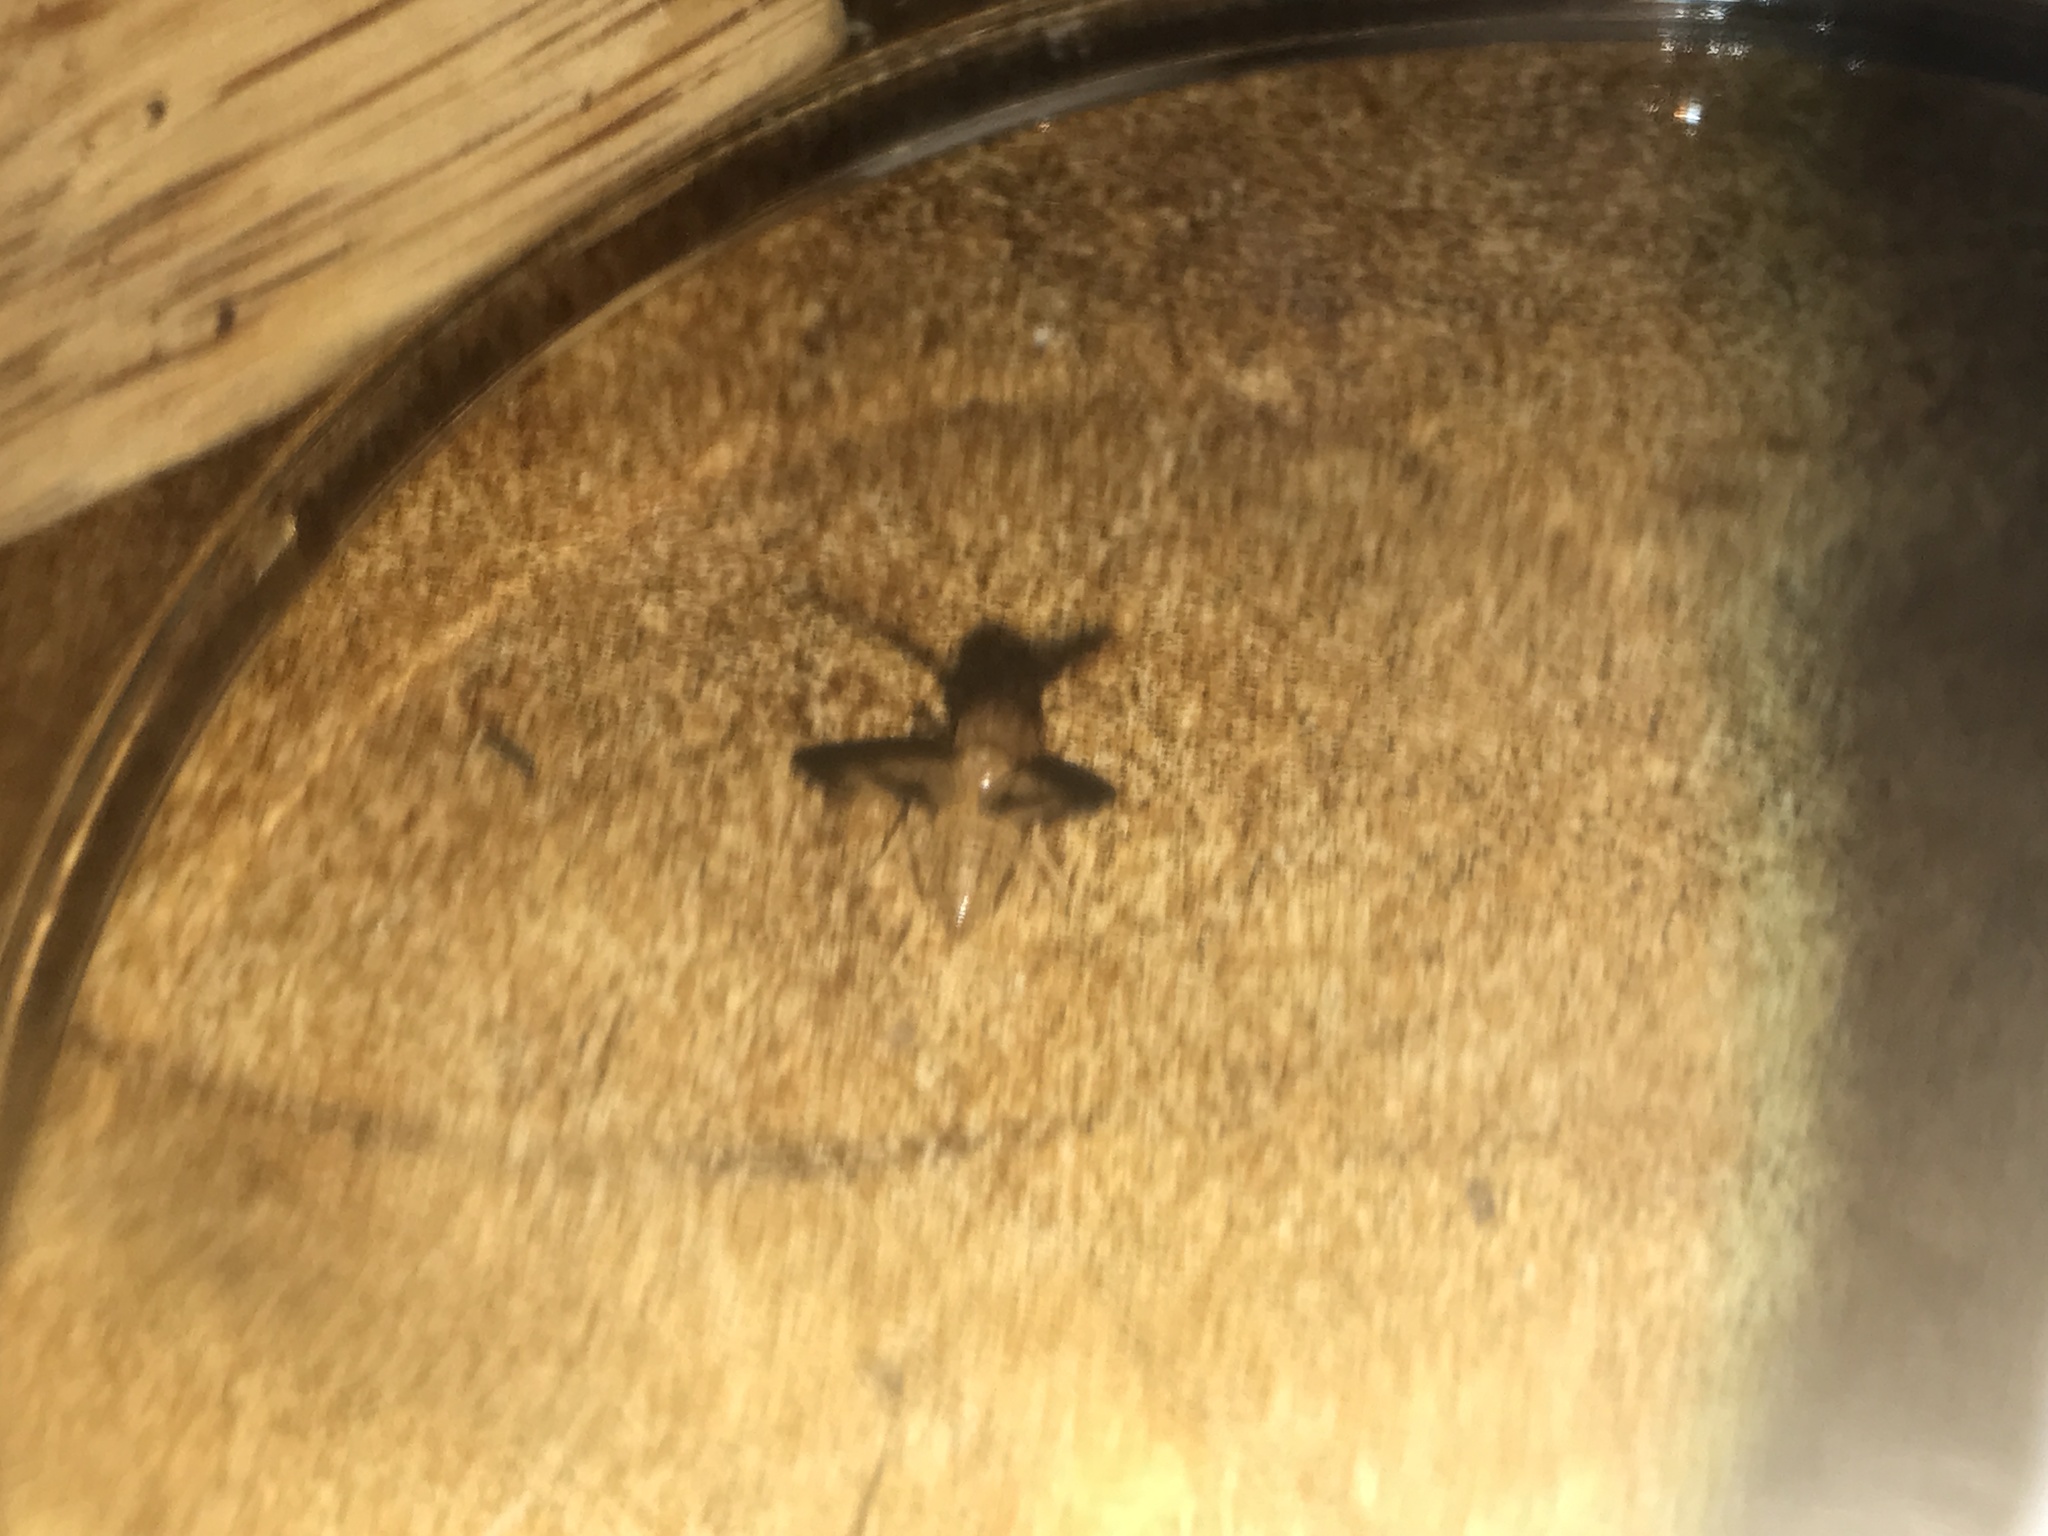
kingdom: Animalia
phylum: Arthropoda
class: Insecta
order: Diptera
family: Pallopteridae
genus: Toxonevra
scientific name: Toxonevra superba
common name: Antlered flutter fly
